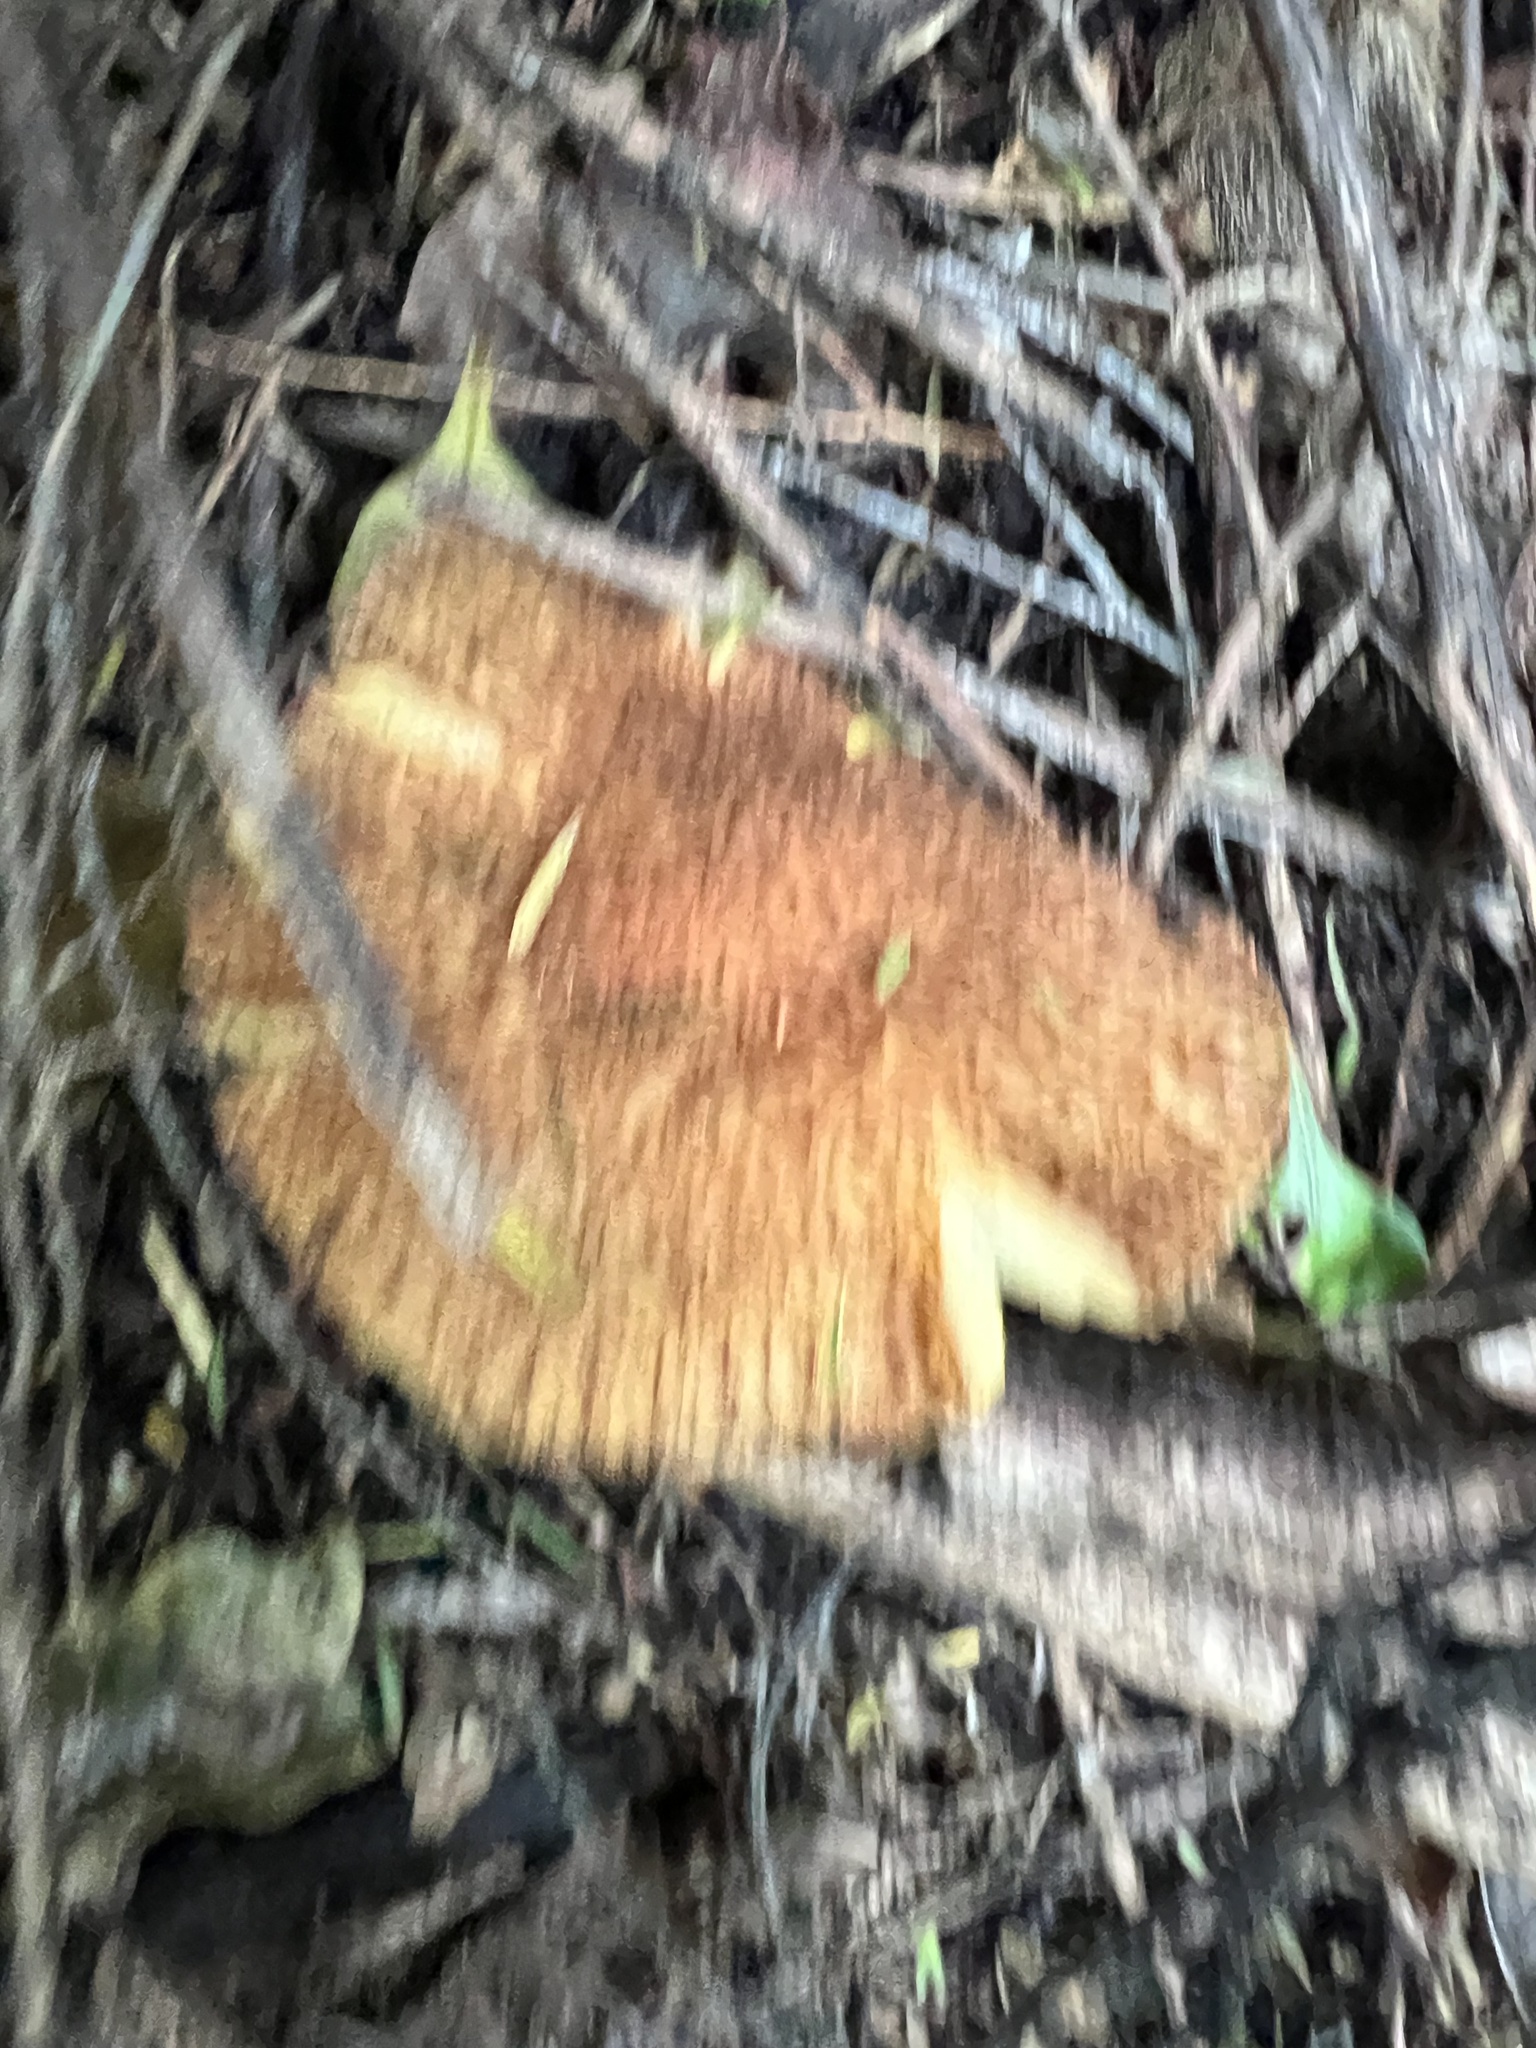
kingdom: Fungi
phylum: Basidiomycota
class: Agaricomycetes
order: Agaricales
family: Tricholomataceae
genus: Tricholomopsis
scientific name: Tricholomopsis scabra
